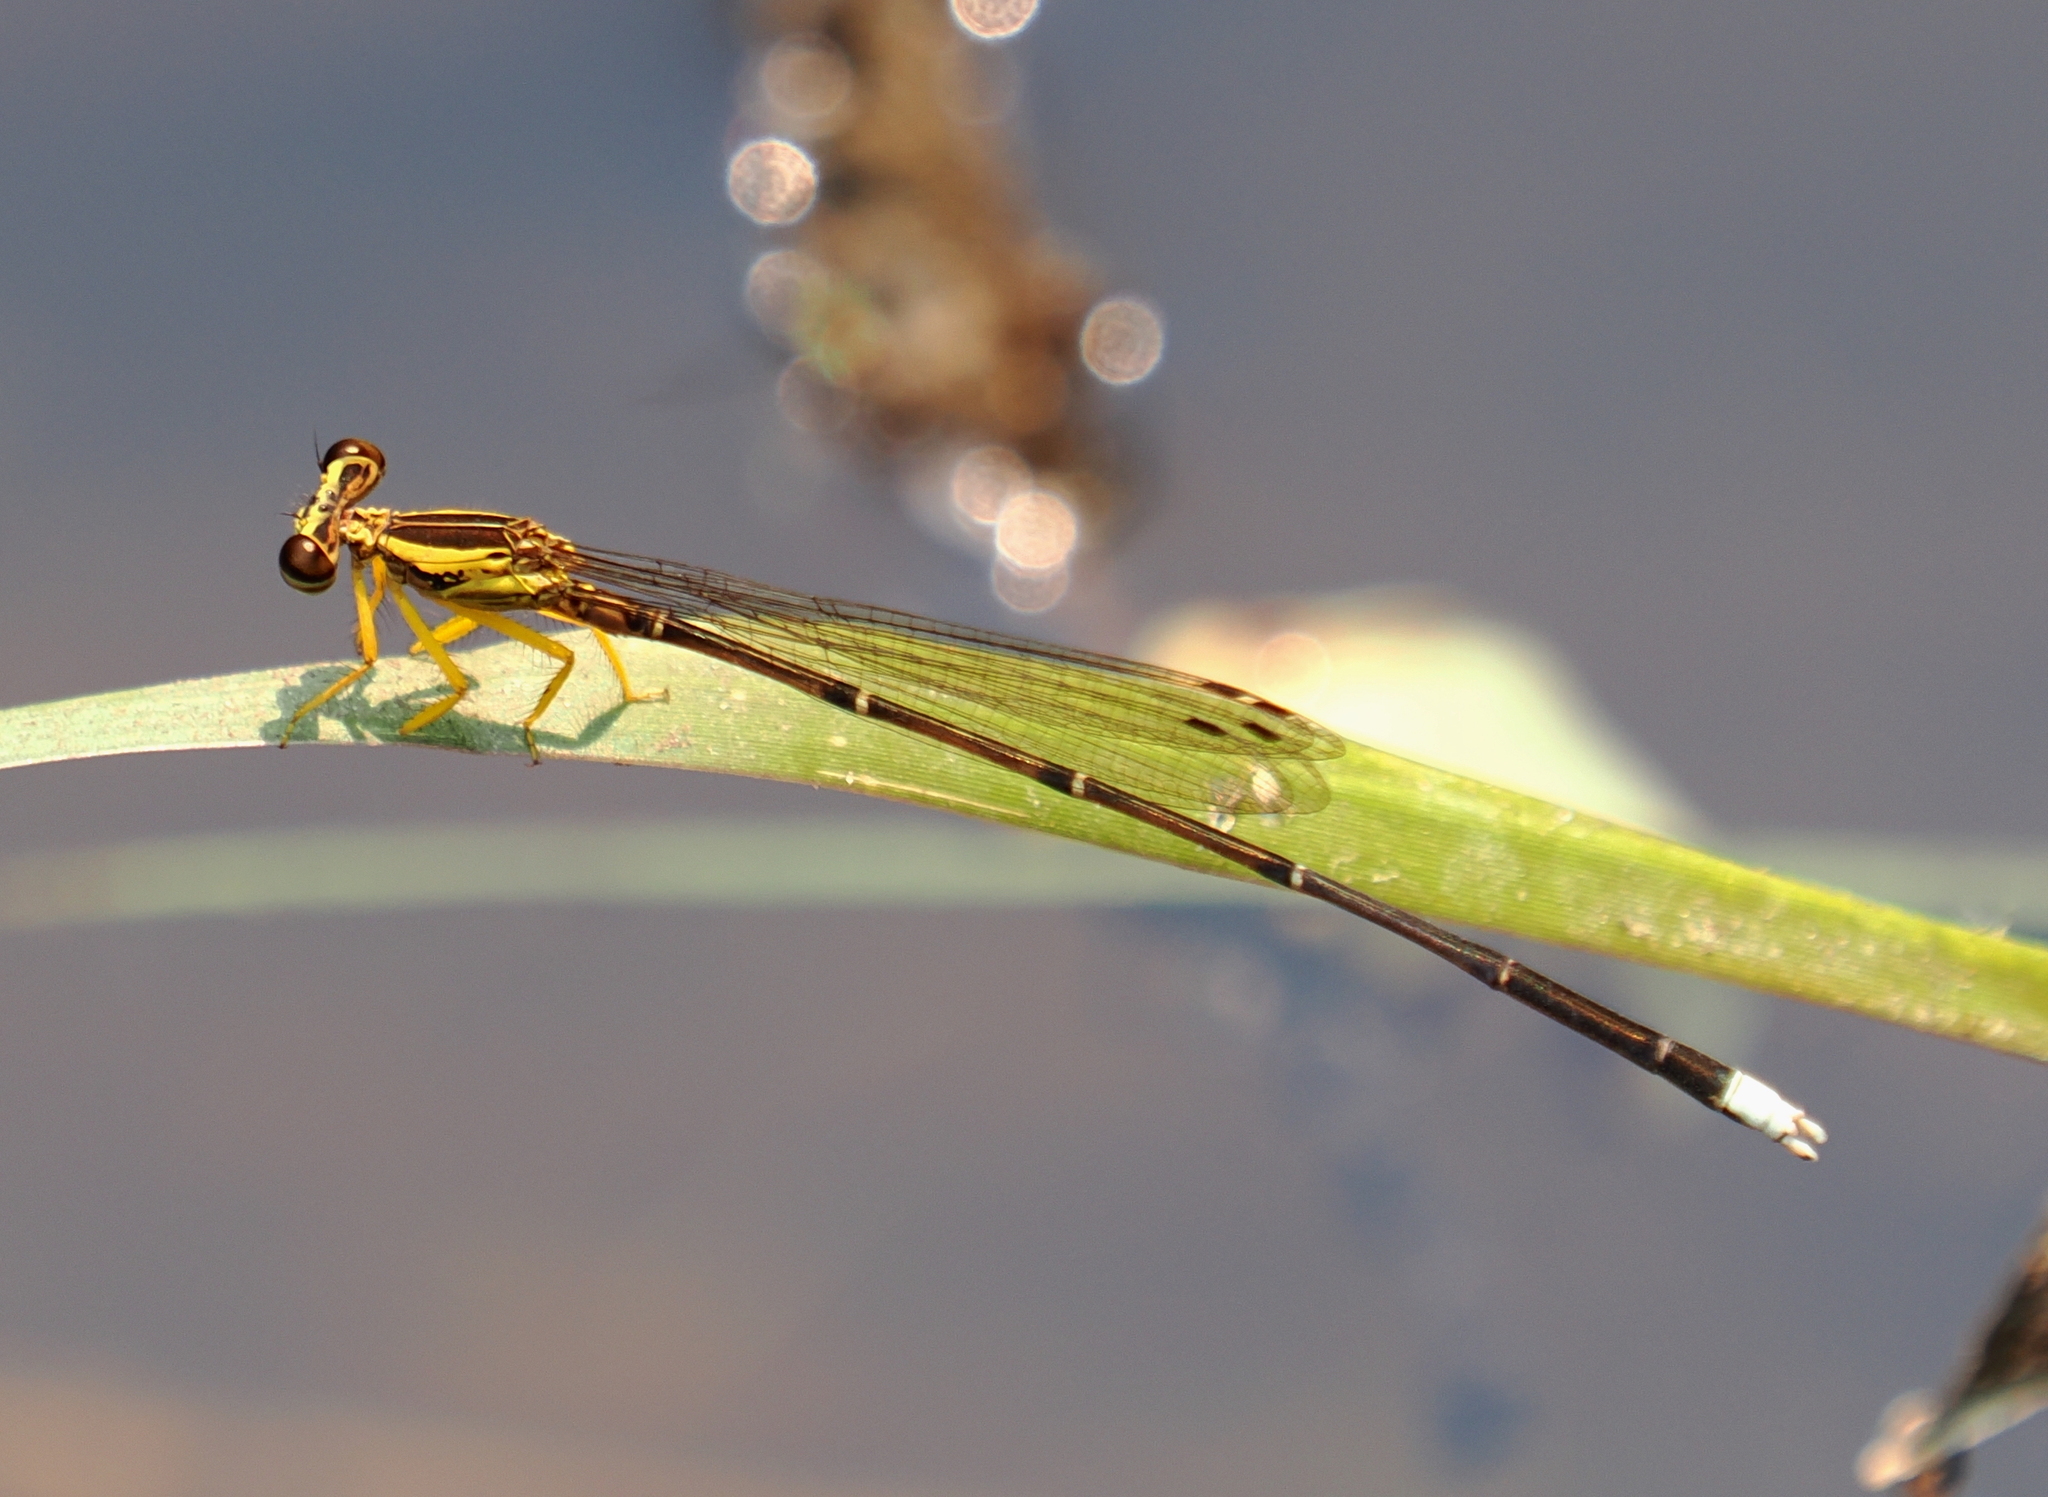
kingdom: Animalia
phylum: Arthropoda
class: Insecta
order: Odonata
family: Platycnemididae
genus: Copera
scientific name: Copera marginipes
